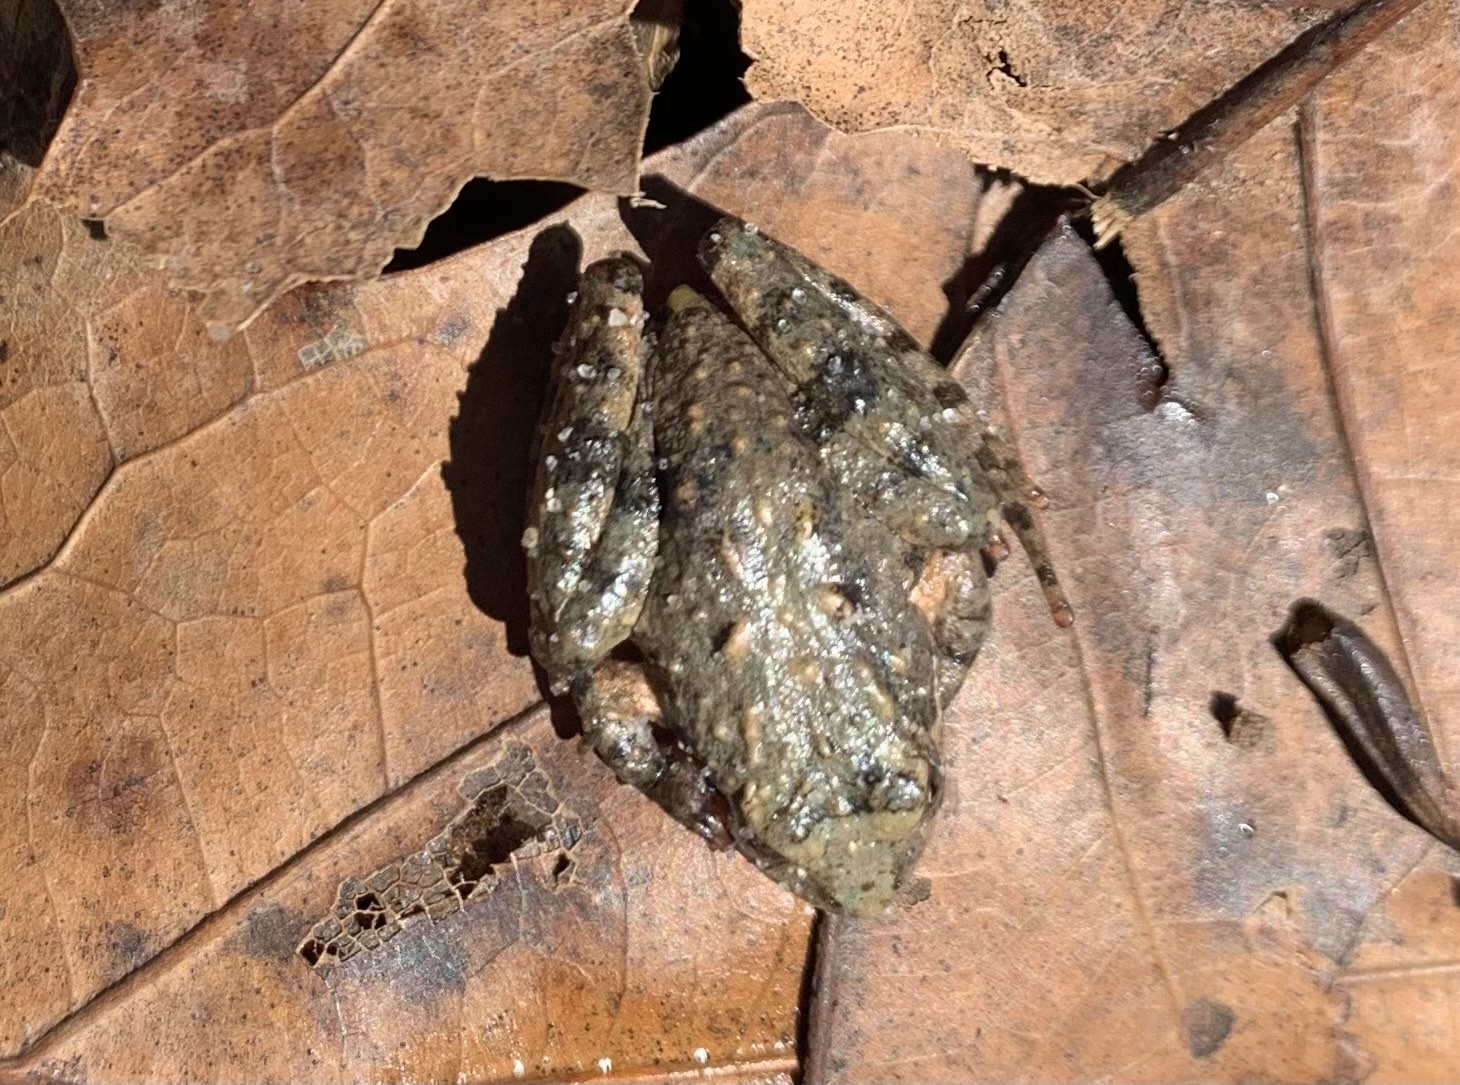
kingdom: Animalia
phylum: Chordata
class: Amphibia
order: Anura
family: Hylidae
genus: Acris
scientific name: Acris crepitans
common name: Northern cricket frog
